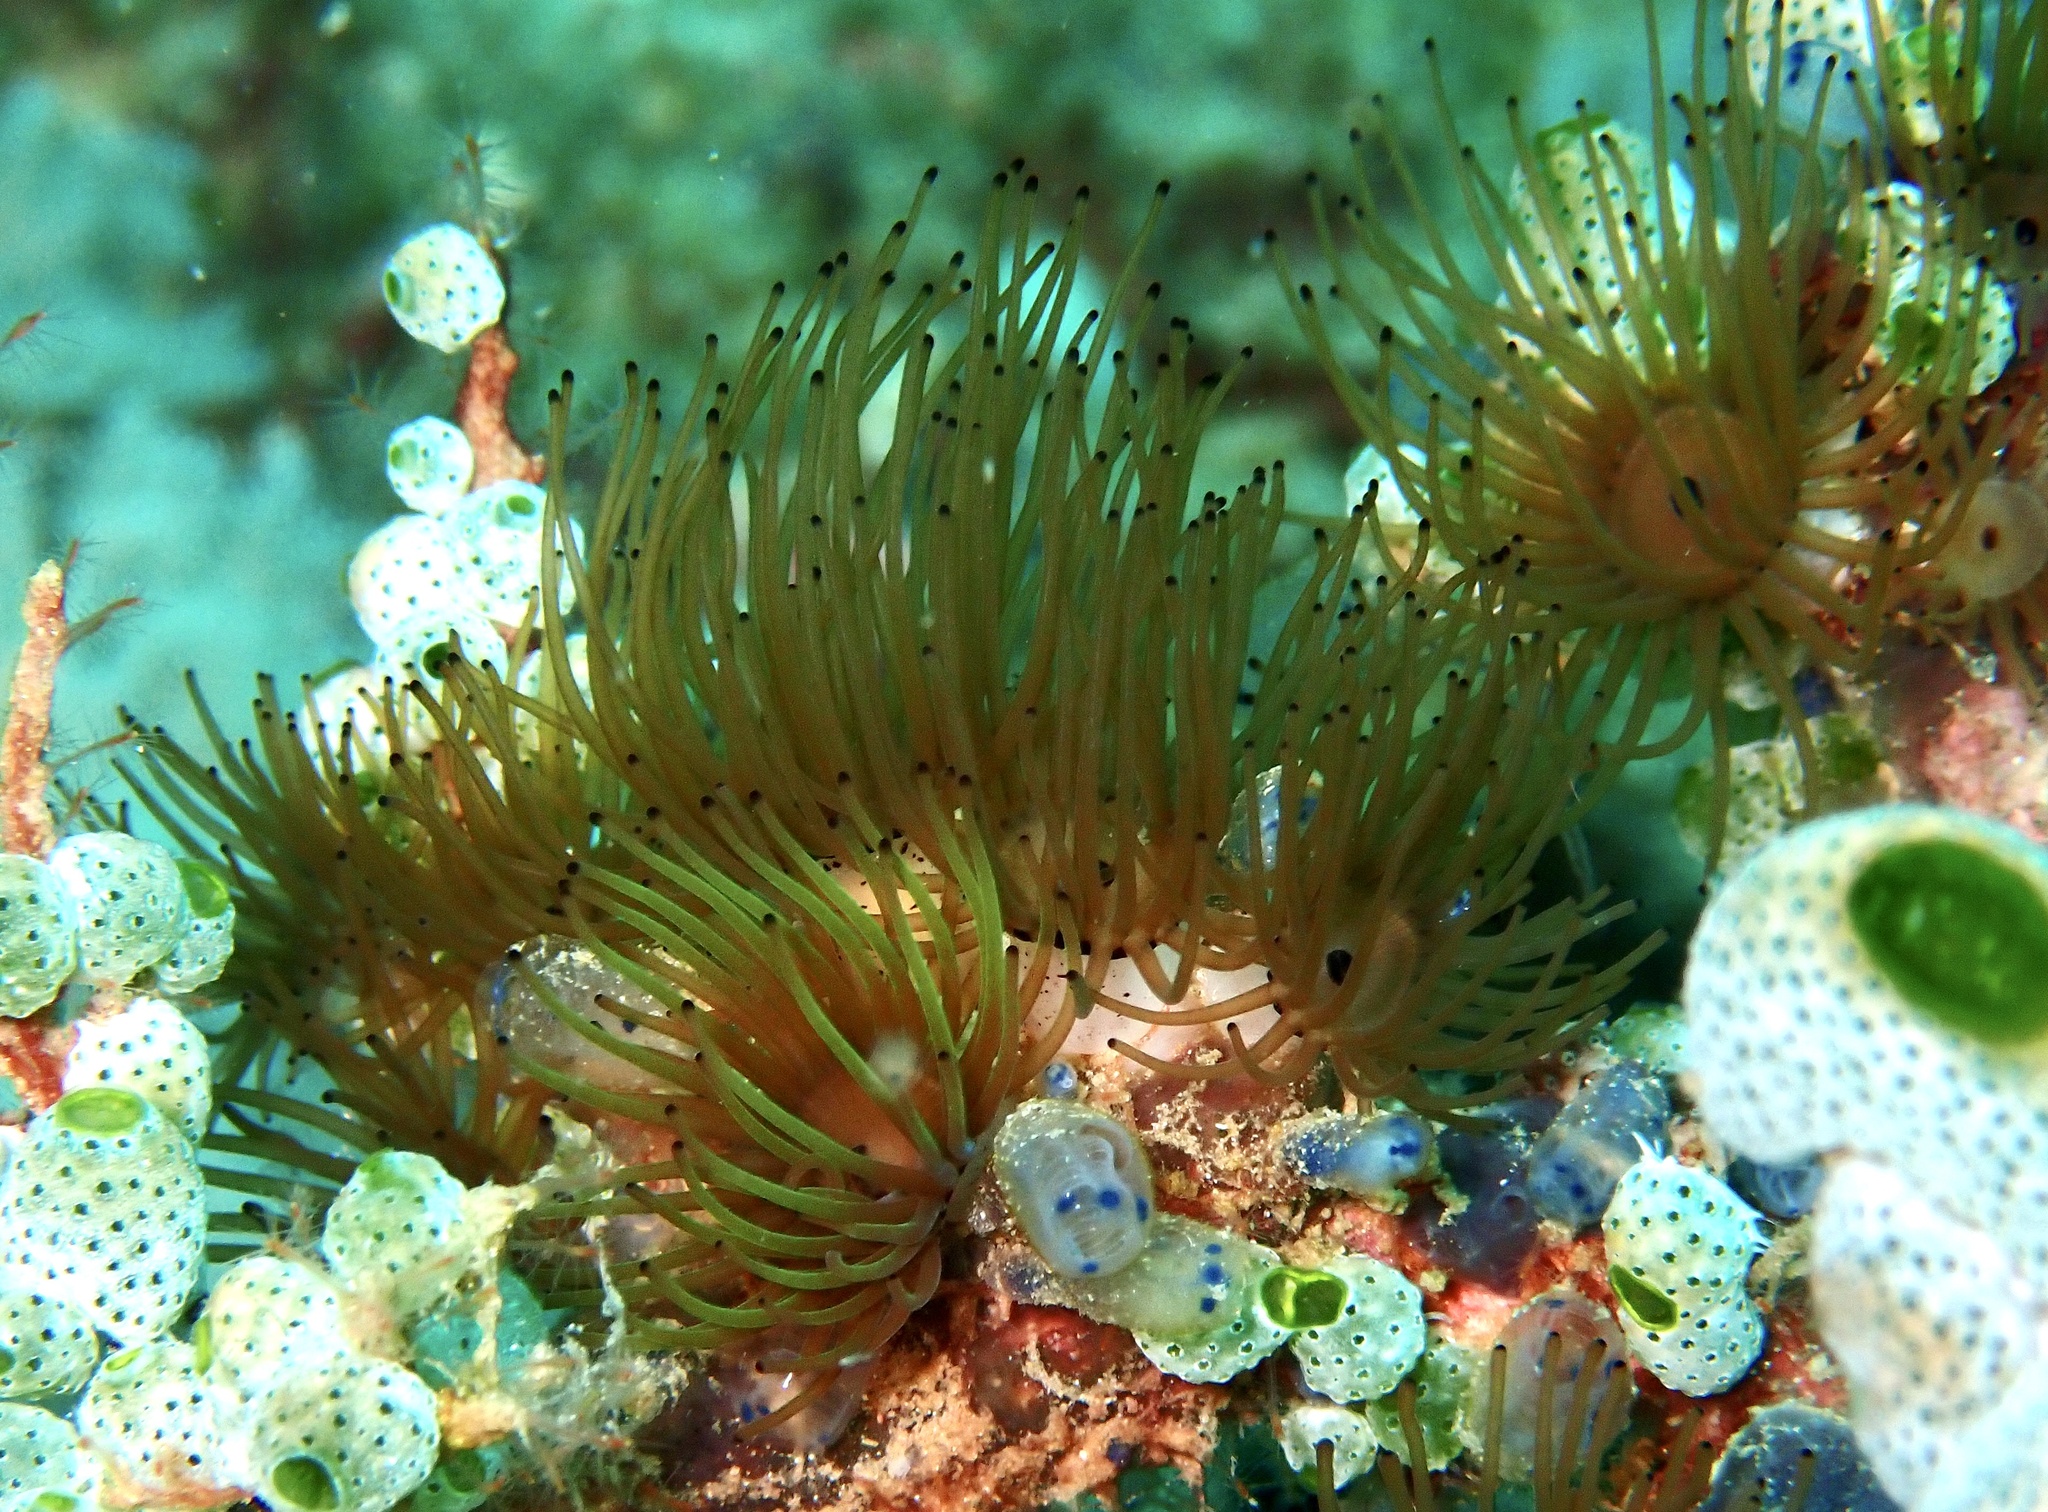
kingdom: Animalia
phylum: Cnidaria
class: Anthozoa
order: Zoantharia
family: Zoanthidae
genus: Acrozoanthus
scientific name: Acrozoanthus australiae
